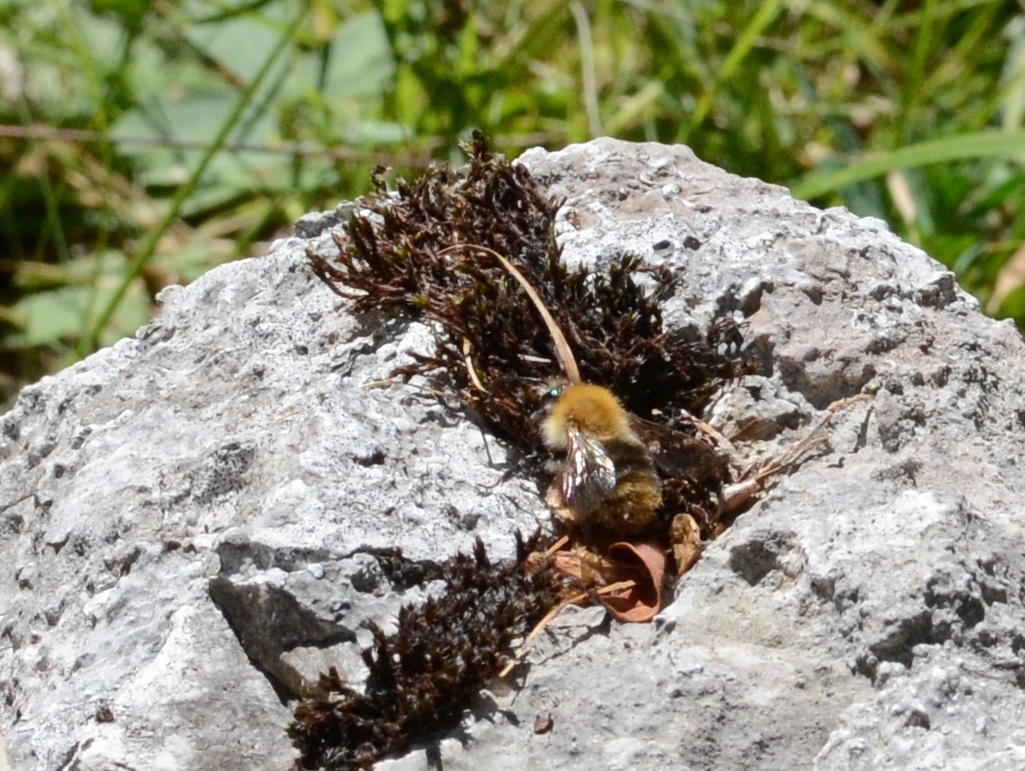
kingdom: Animalia
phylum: Arthropoda
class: Insecta
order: Hymenoptera
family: Apidae
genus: Bombus
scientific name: Bombus pascuorum
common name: Common carder bee
